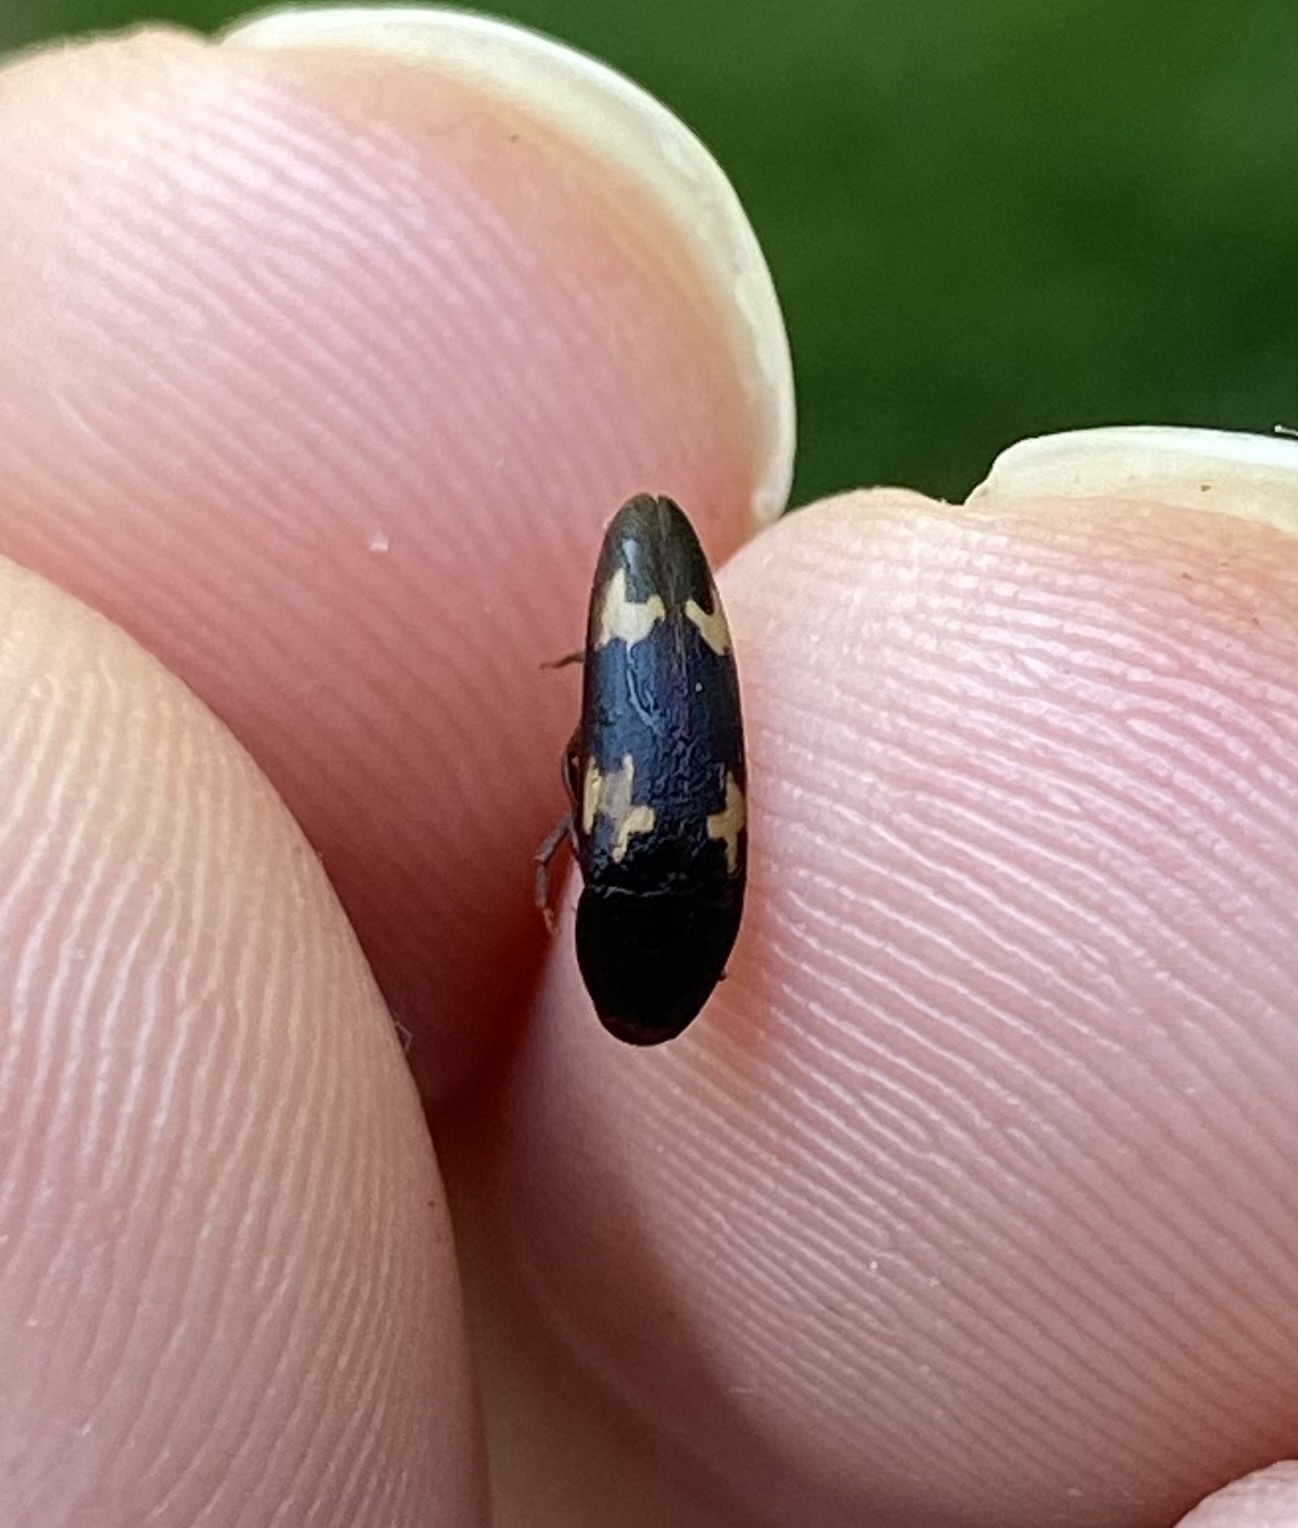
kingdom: Animalia
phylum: Arthropoda
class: Insecta
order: Coleoptera
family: Melandryidae
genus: Dircaea
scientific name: Dircaea liturata
